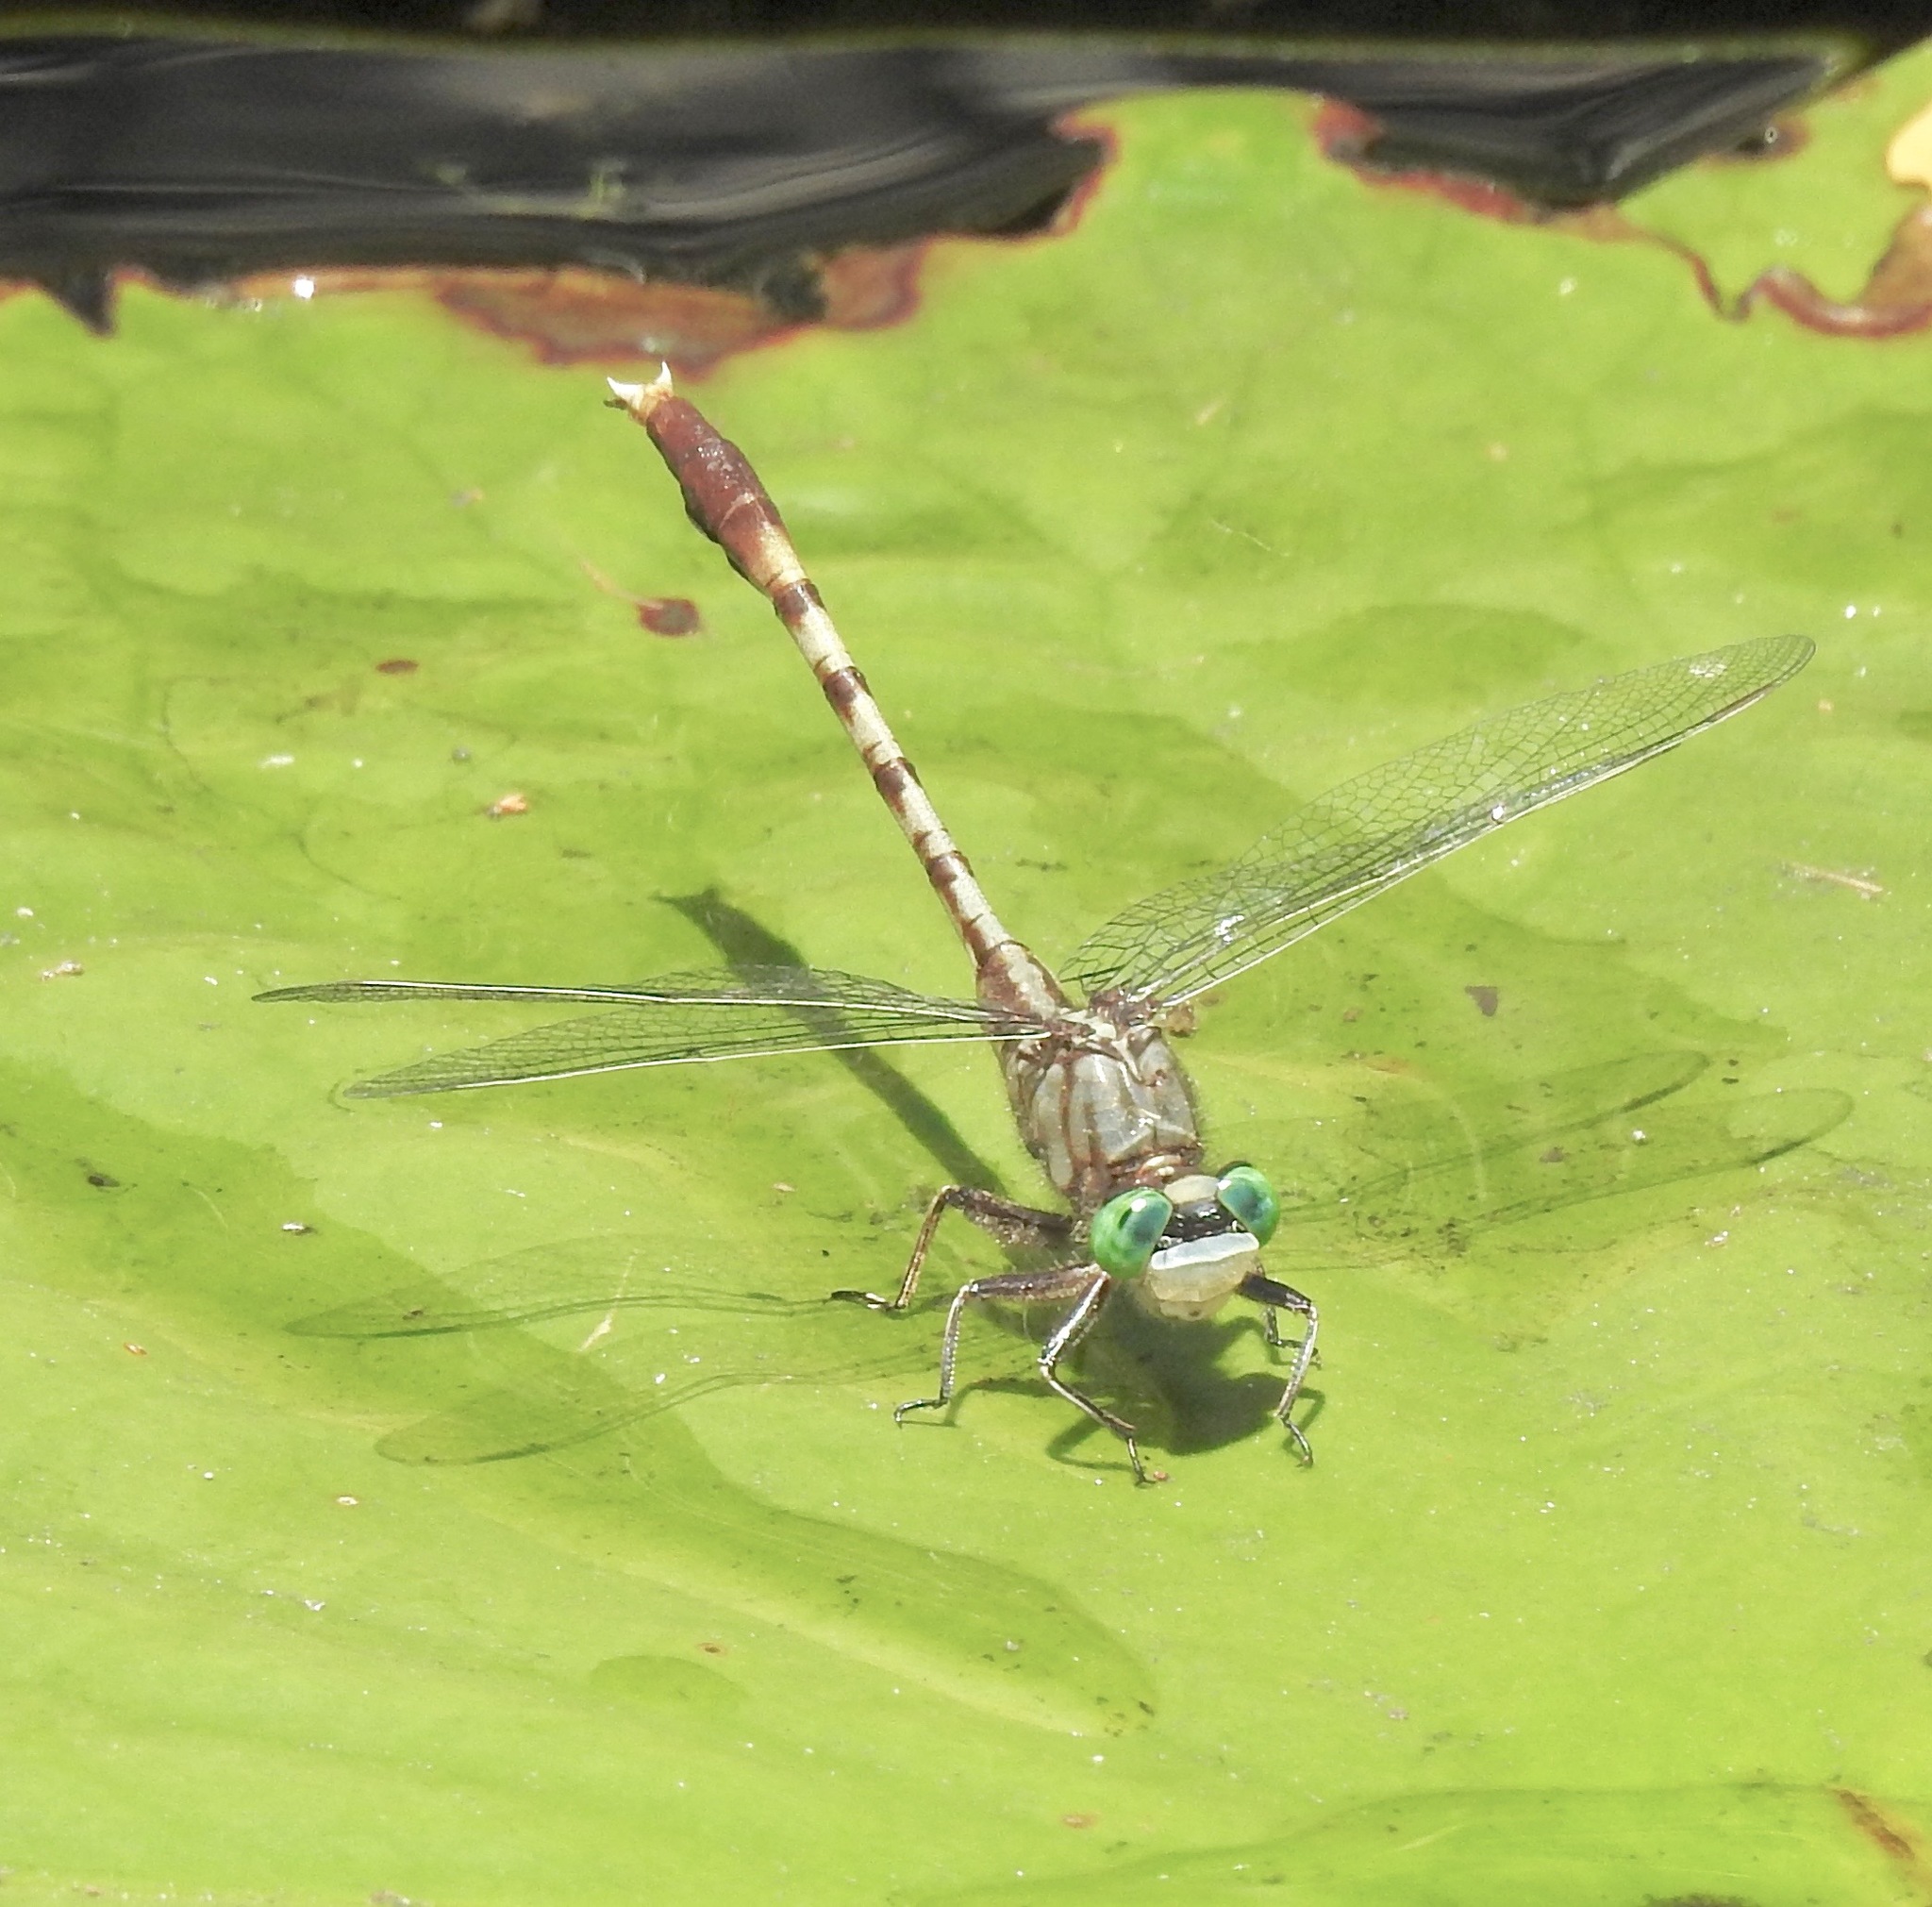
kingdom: Animalia
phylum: Arthropoda
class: Insecta
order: Odonata
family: Gomphidae
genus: Arigomphus
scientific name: Arigomphus pallidus
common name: Gray-green clubtail
